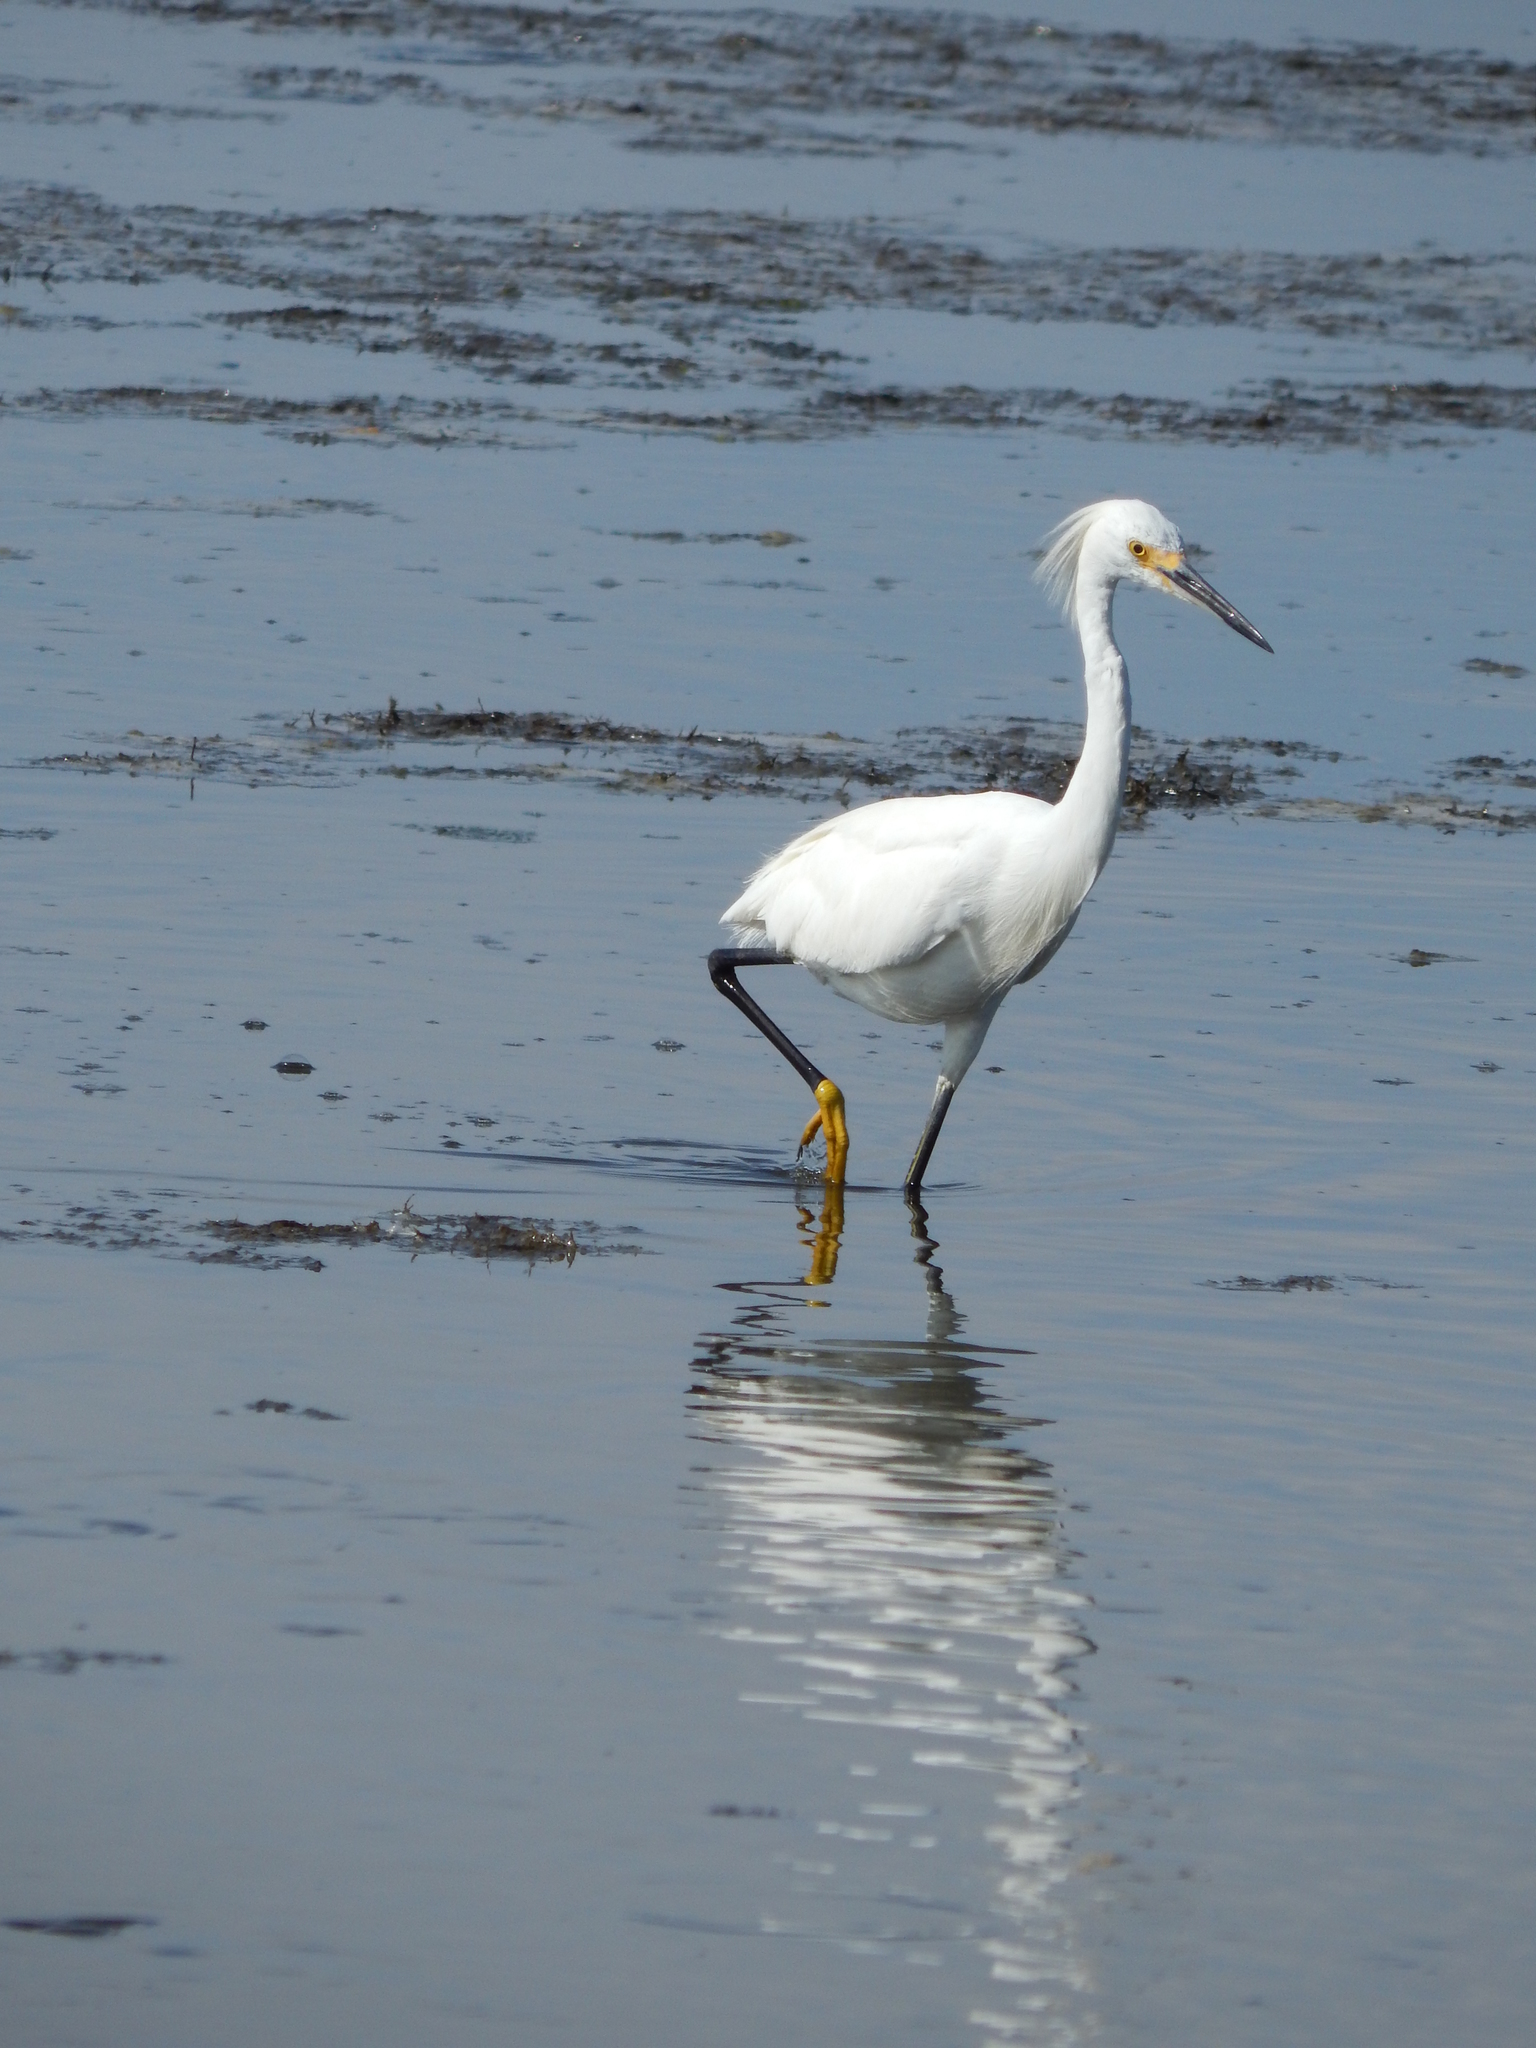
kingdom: Animalia
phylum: Chordata
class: Aves
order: Pelecaniformes
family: Ardeidae
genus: Egretta
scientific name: Egretta thula
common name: Snowy egret
